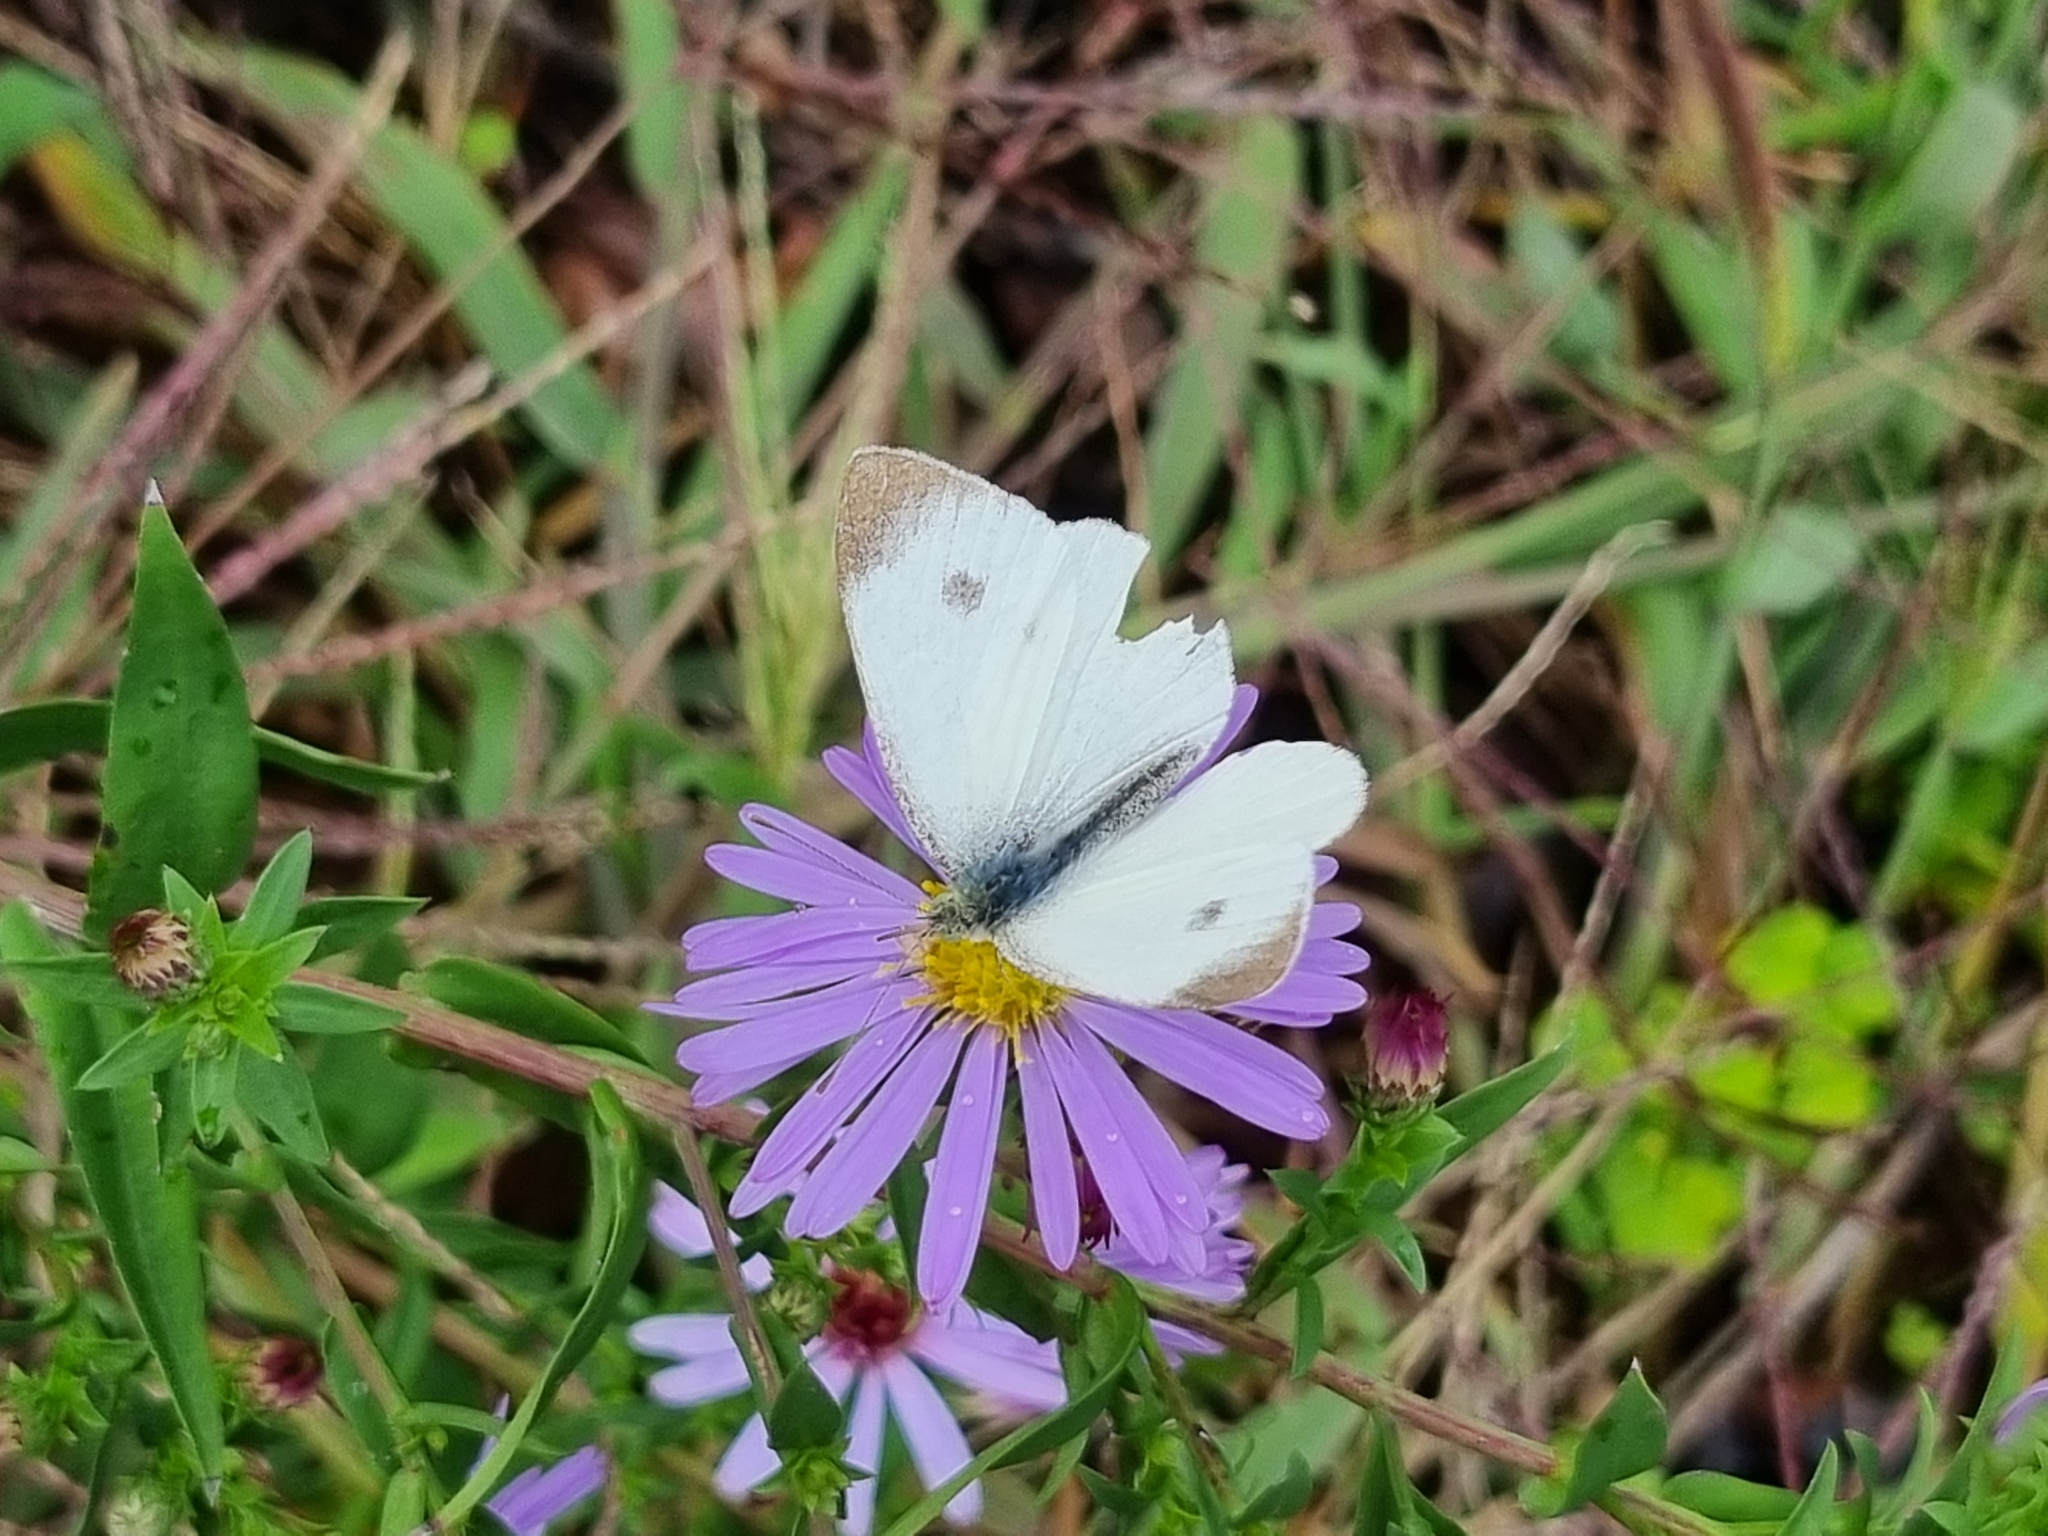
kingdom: Animalia
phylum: Arthropoda
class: Insecta
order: Lepidoptera
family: Pieridae
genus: Pieris
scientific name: Pieris mannii
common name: Southern small white
